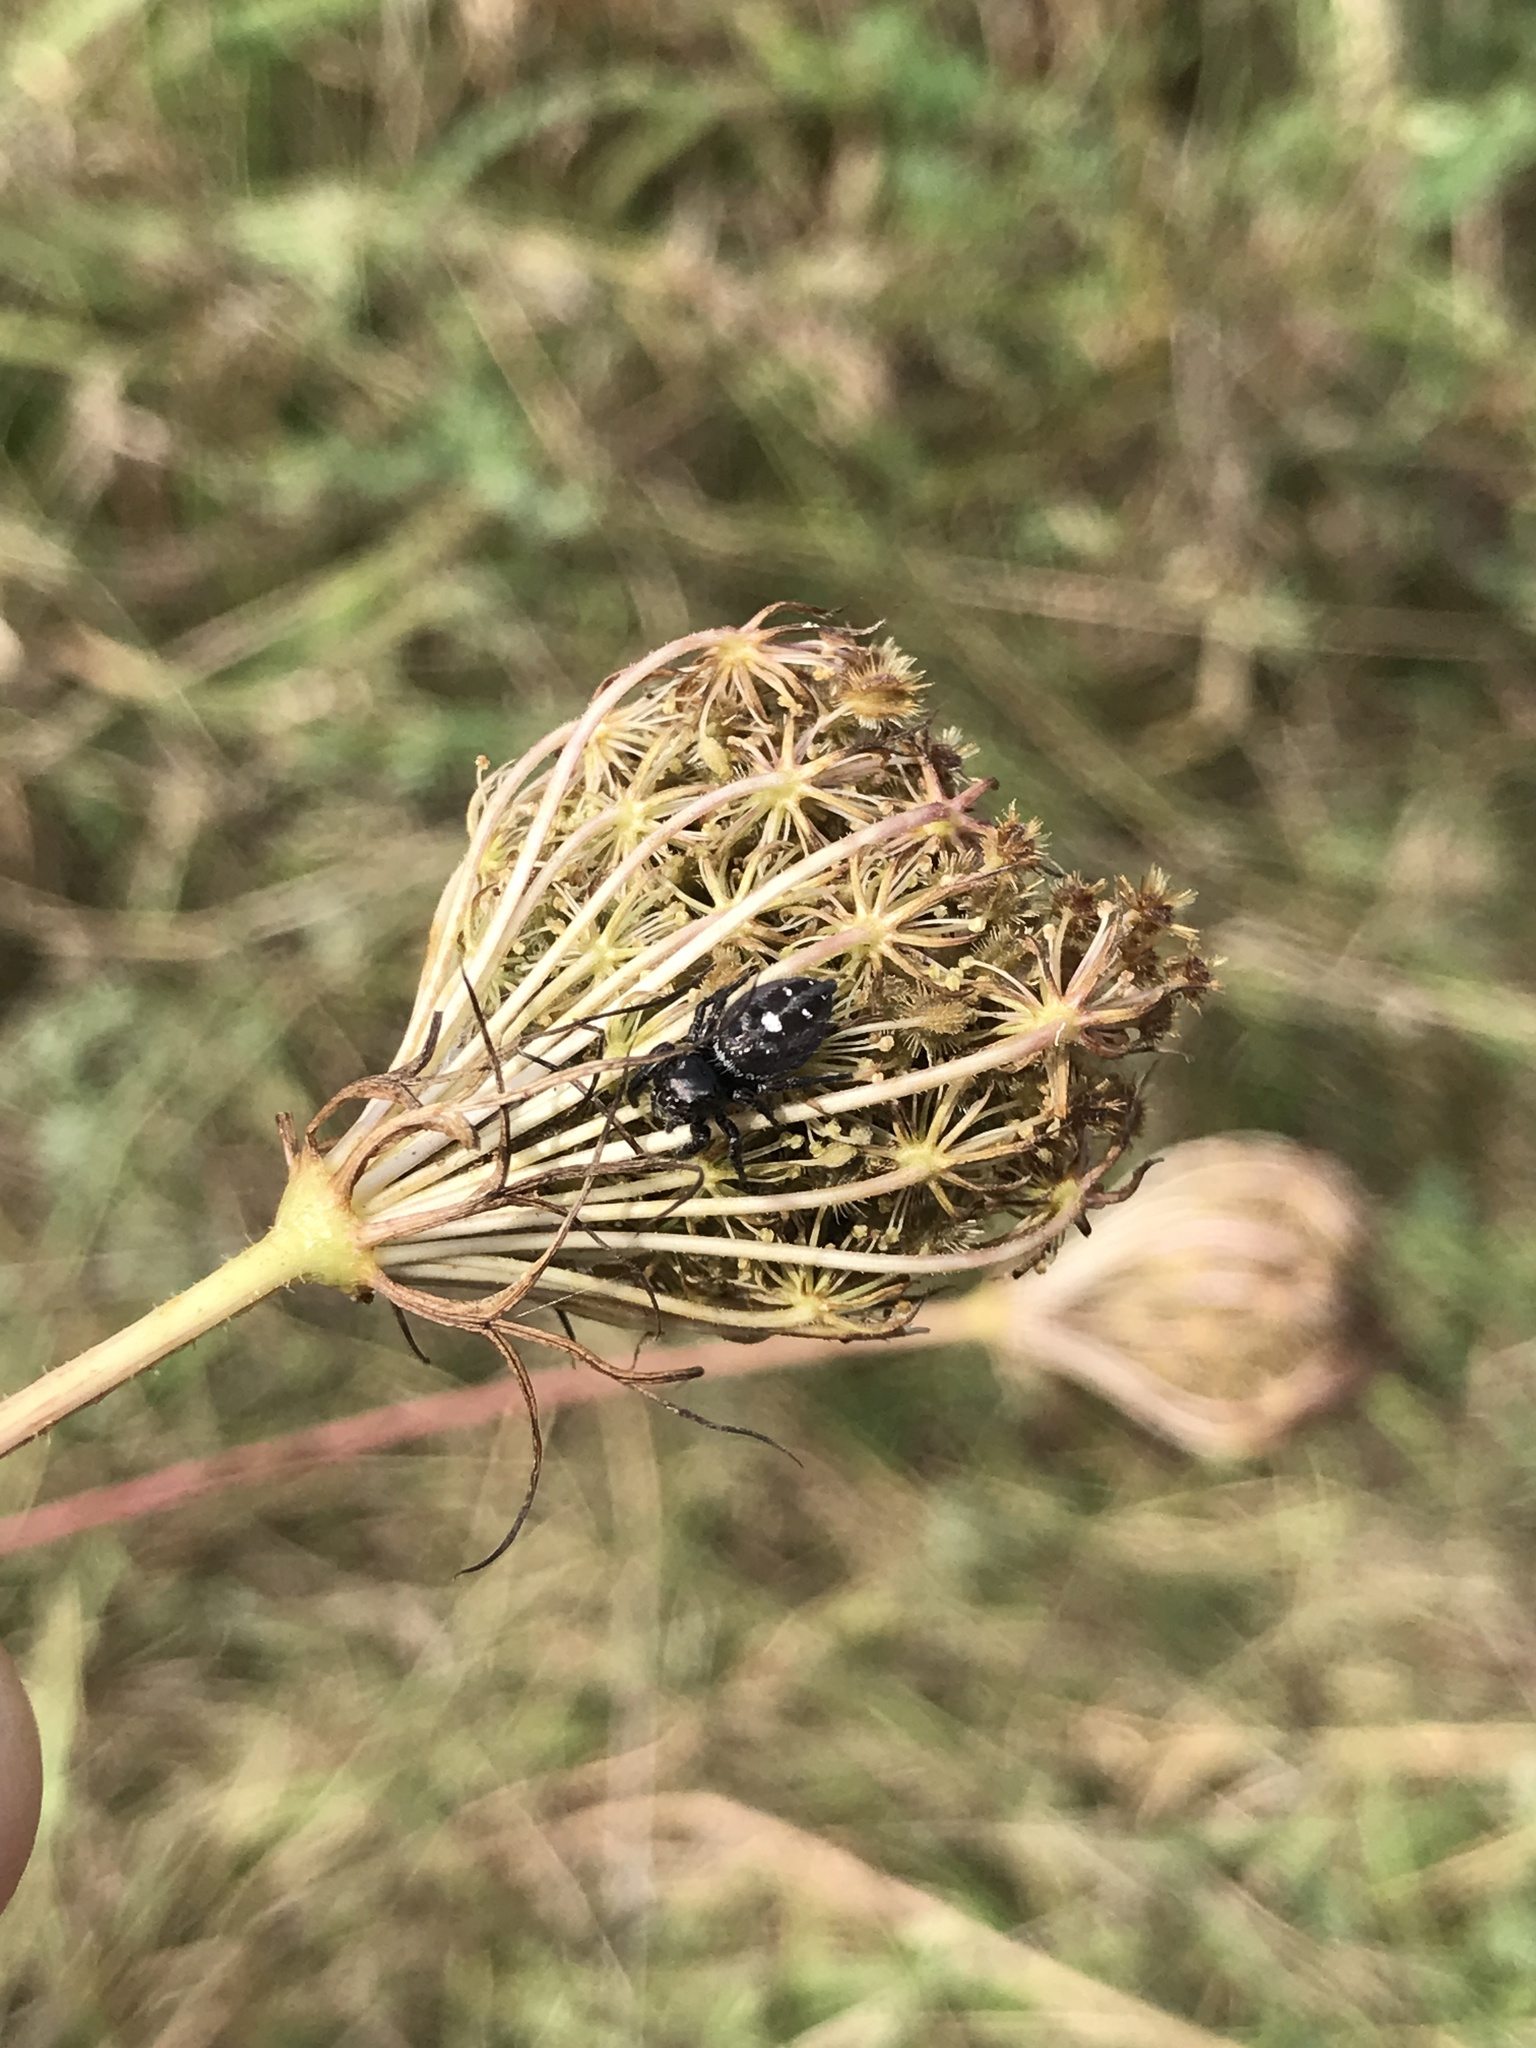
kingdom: Animalia
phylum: Arthropoda
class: Arachnida
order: Araneae
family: Salticidae
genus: Phidippus
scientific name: Phidippus audax
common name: Bold jumper
